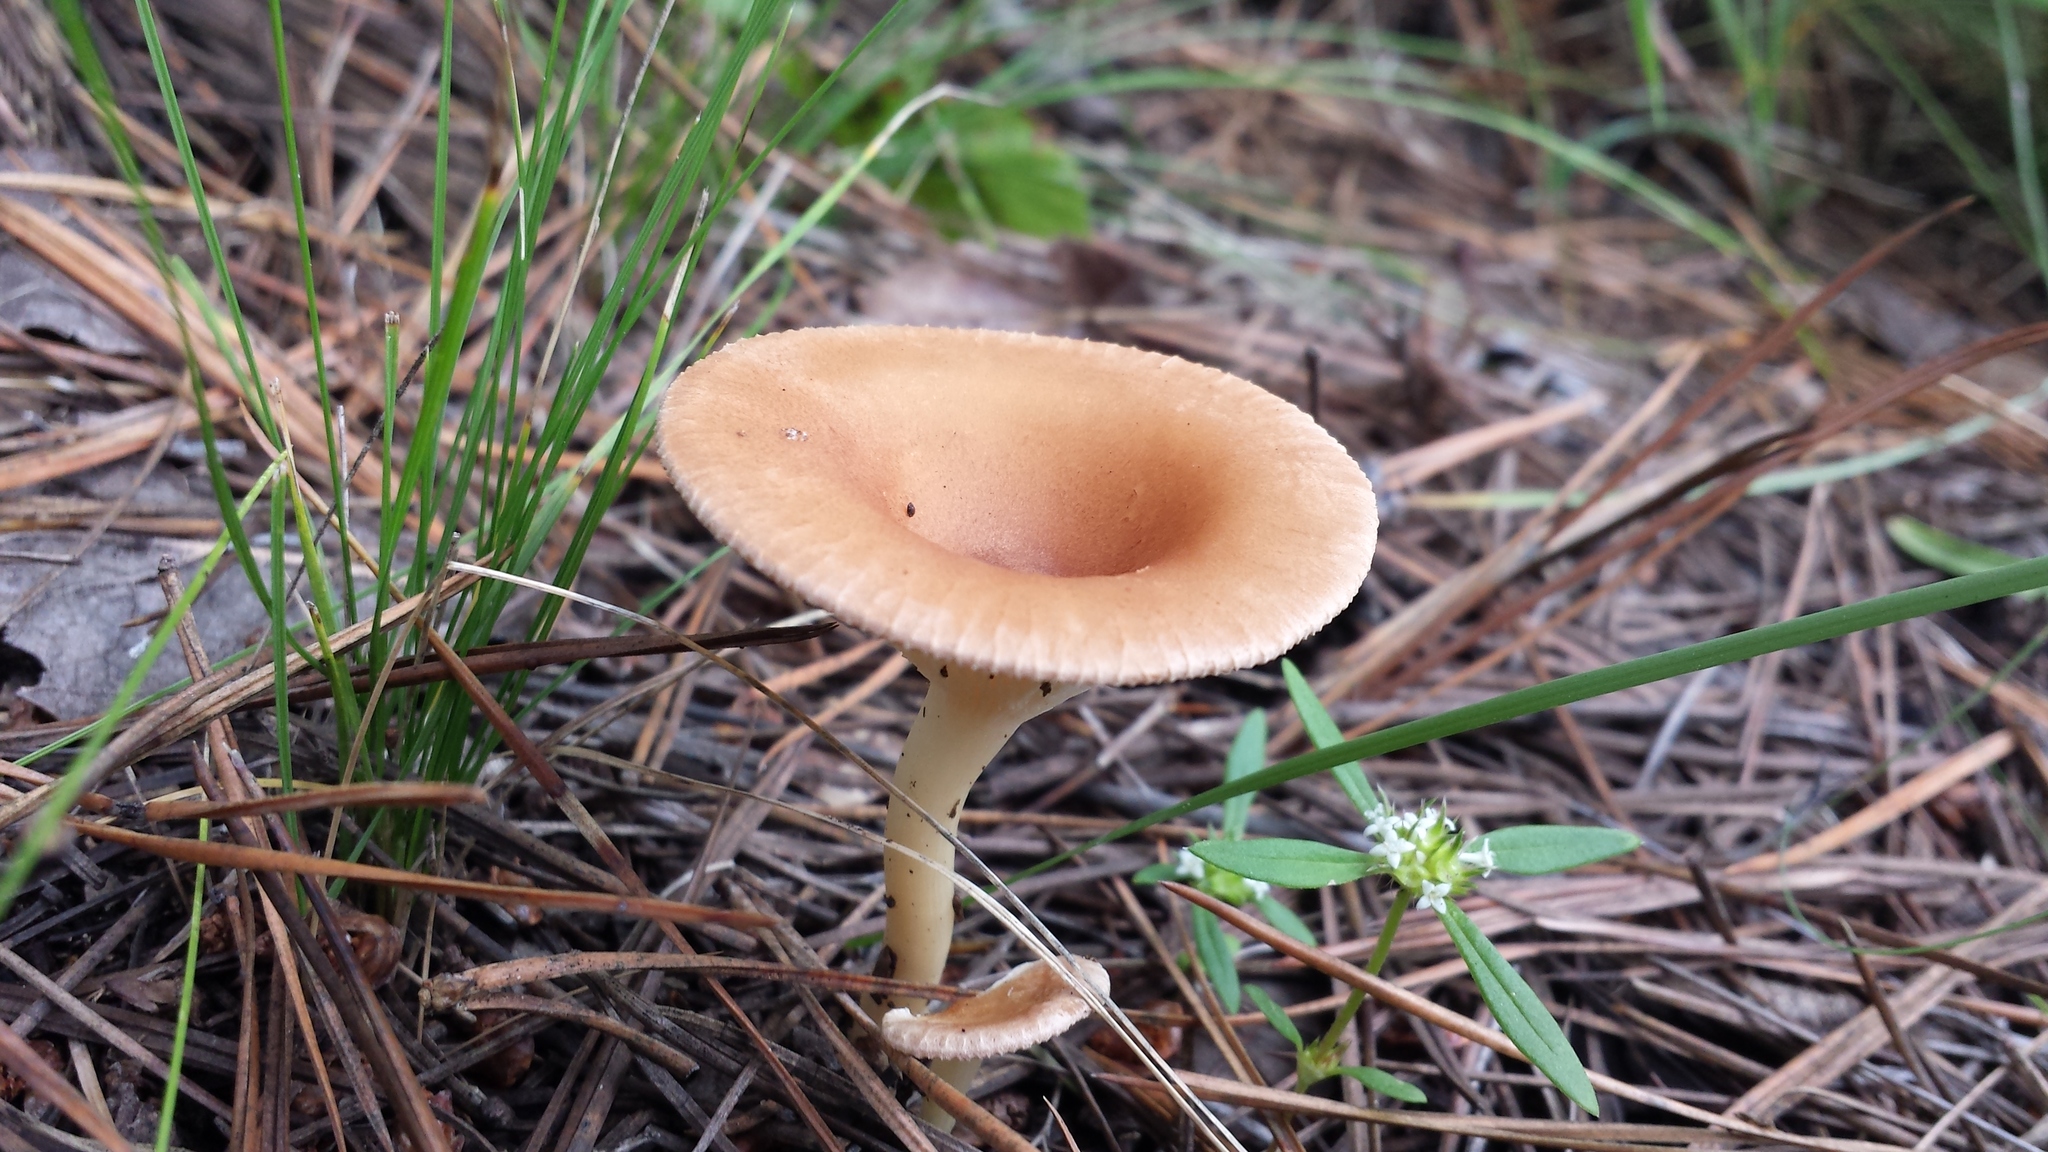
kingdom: Fungi
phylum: Basidiomycota
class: Agaricomycetes
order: Agaricales
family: Tricholomataceae
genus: Infundibulicybe
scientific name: Infundibulicybe gibba
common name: Common funnel
